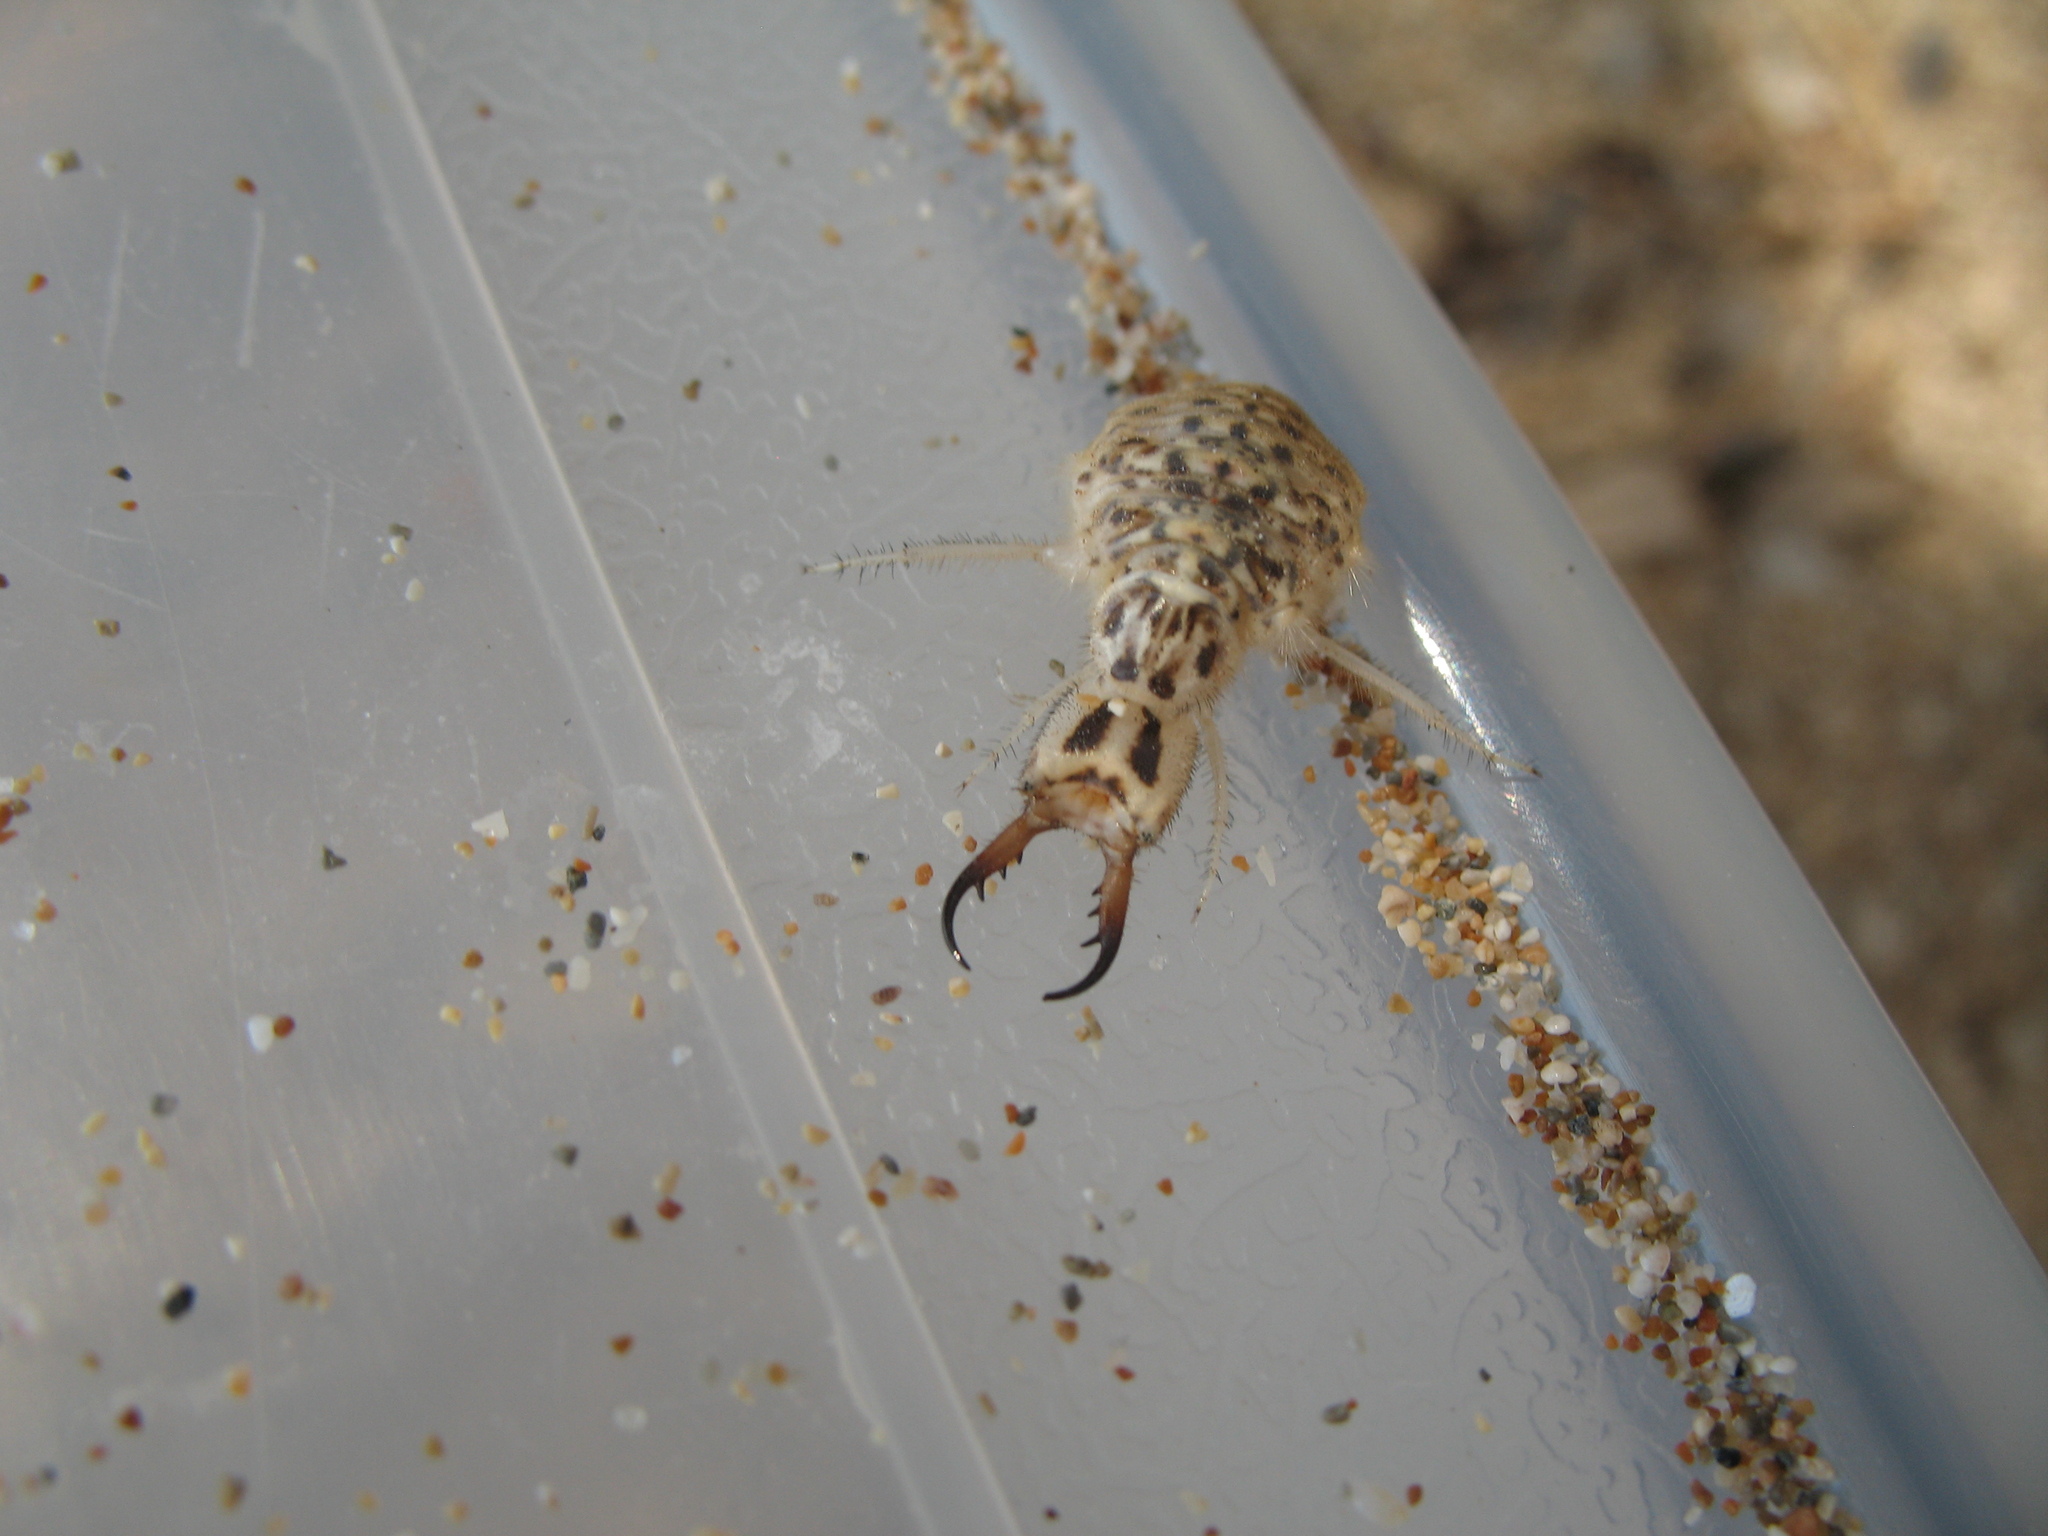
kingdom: Animalia
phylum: Arthropoda
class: Insecta
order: Neuroptera
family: Myrmeleontidae
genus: Synclisis
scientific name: Synclisis baetica
